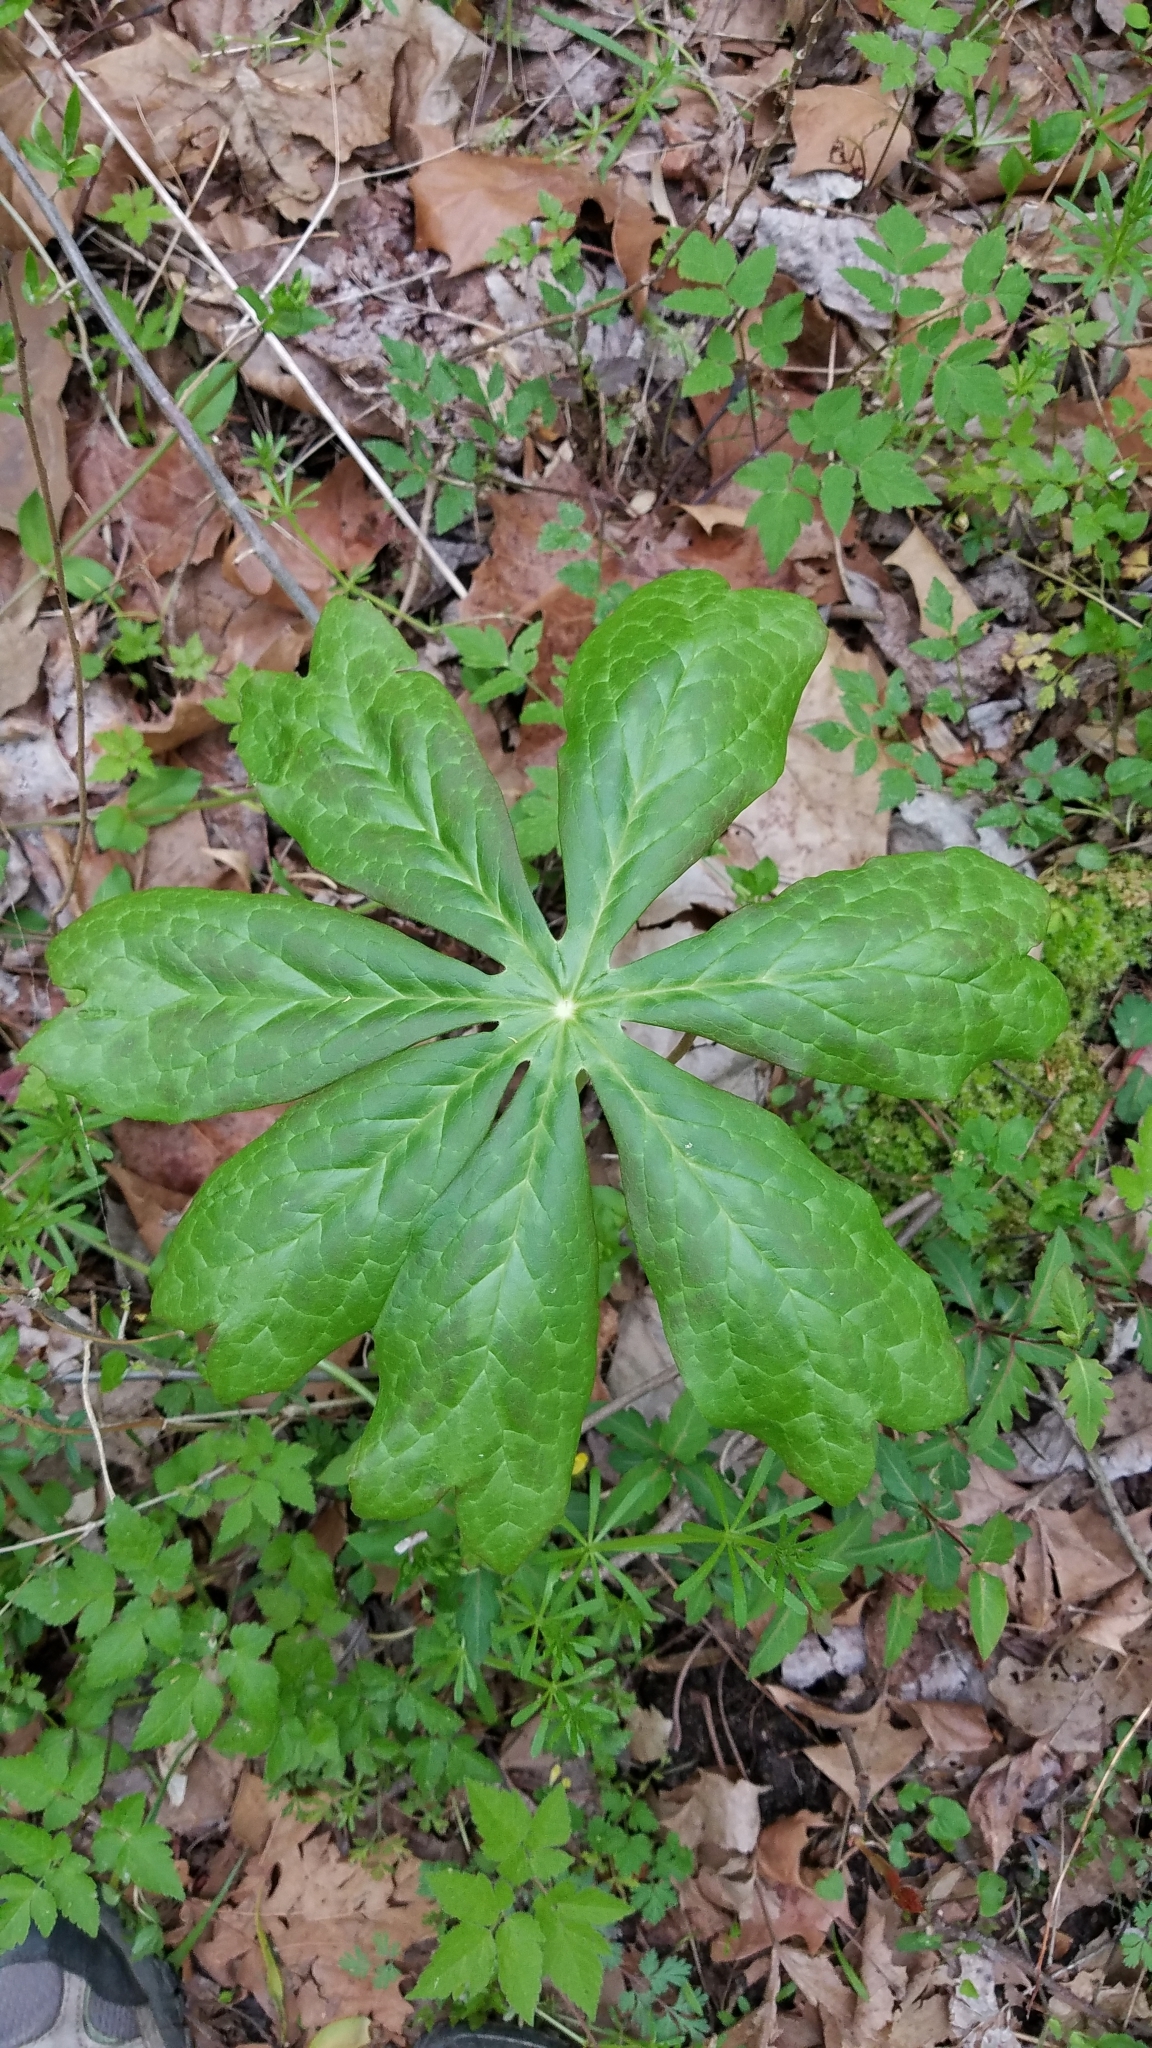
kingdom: Plantae
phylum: Tracheophyta
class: Magnoliopsida
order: Ranunculales
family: Berberidaceae
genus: Podophyllum
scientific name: Podophyllum peltatum
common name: Wild mandrake
